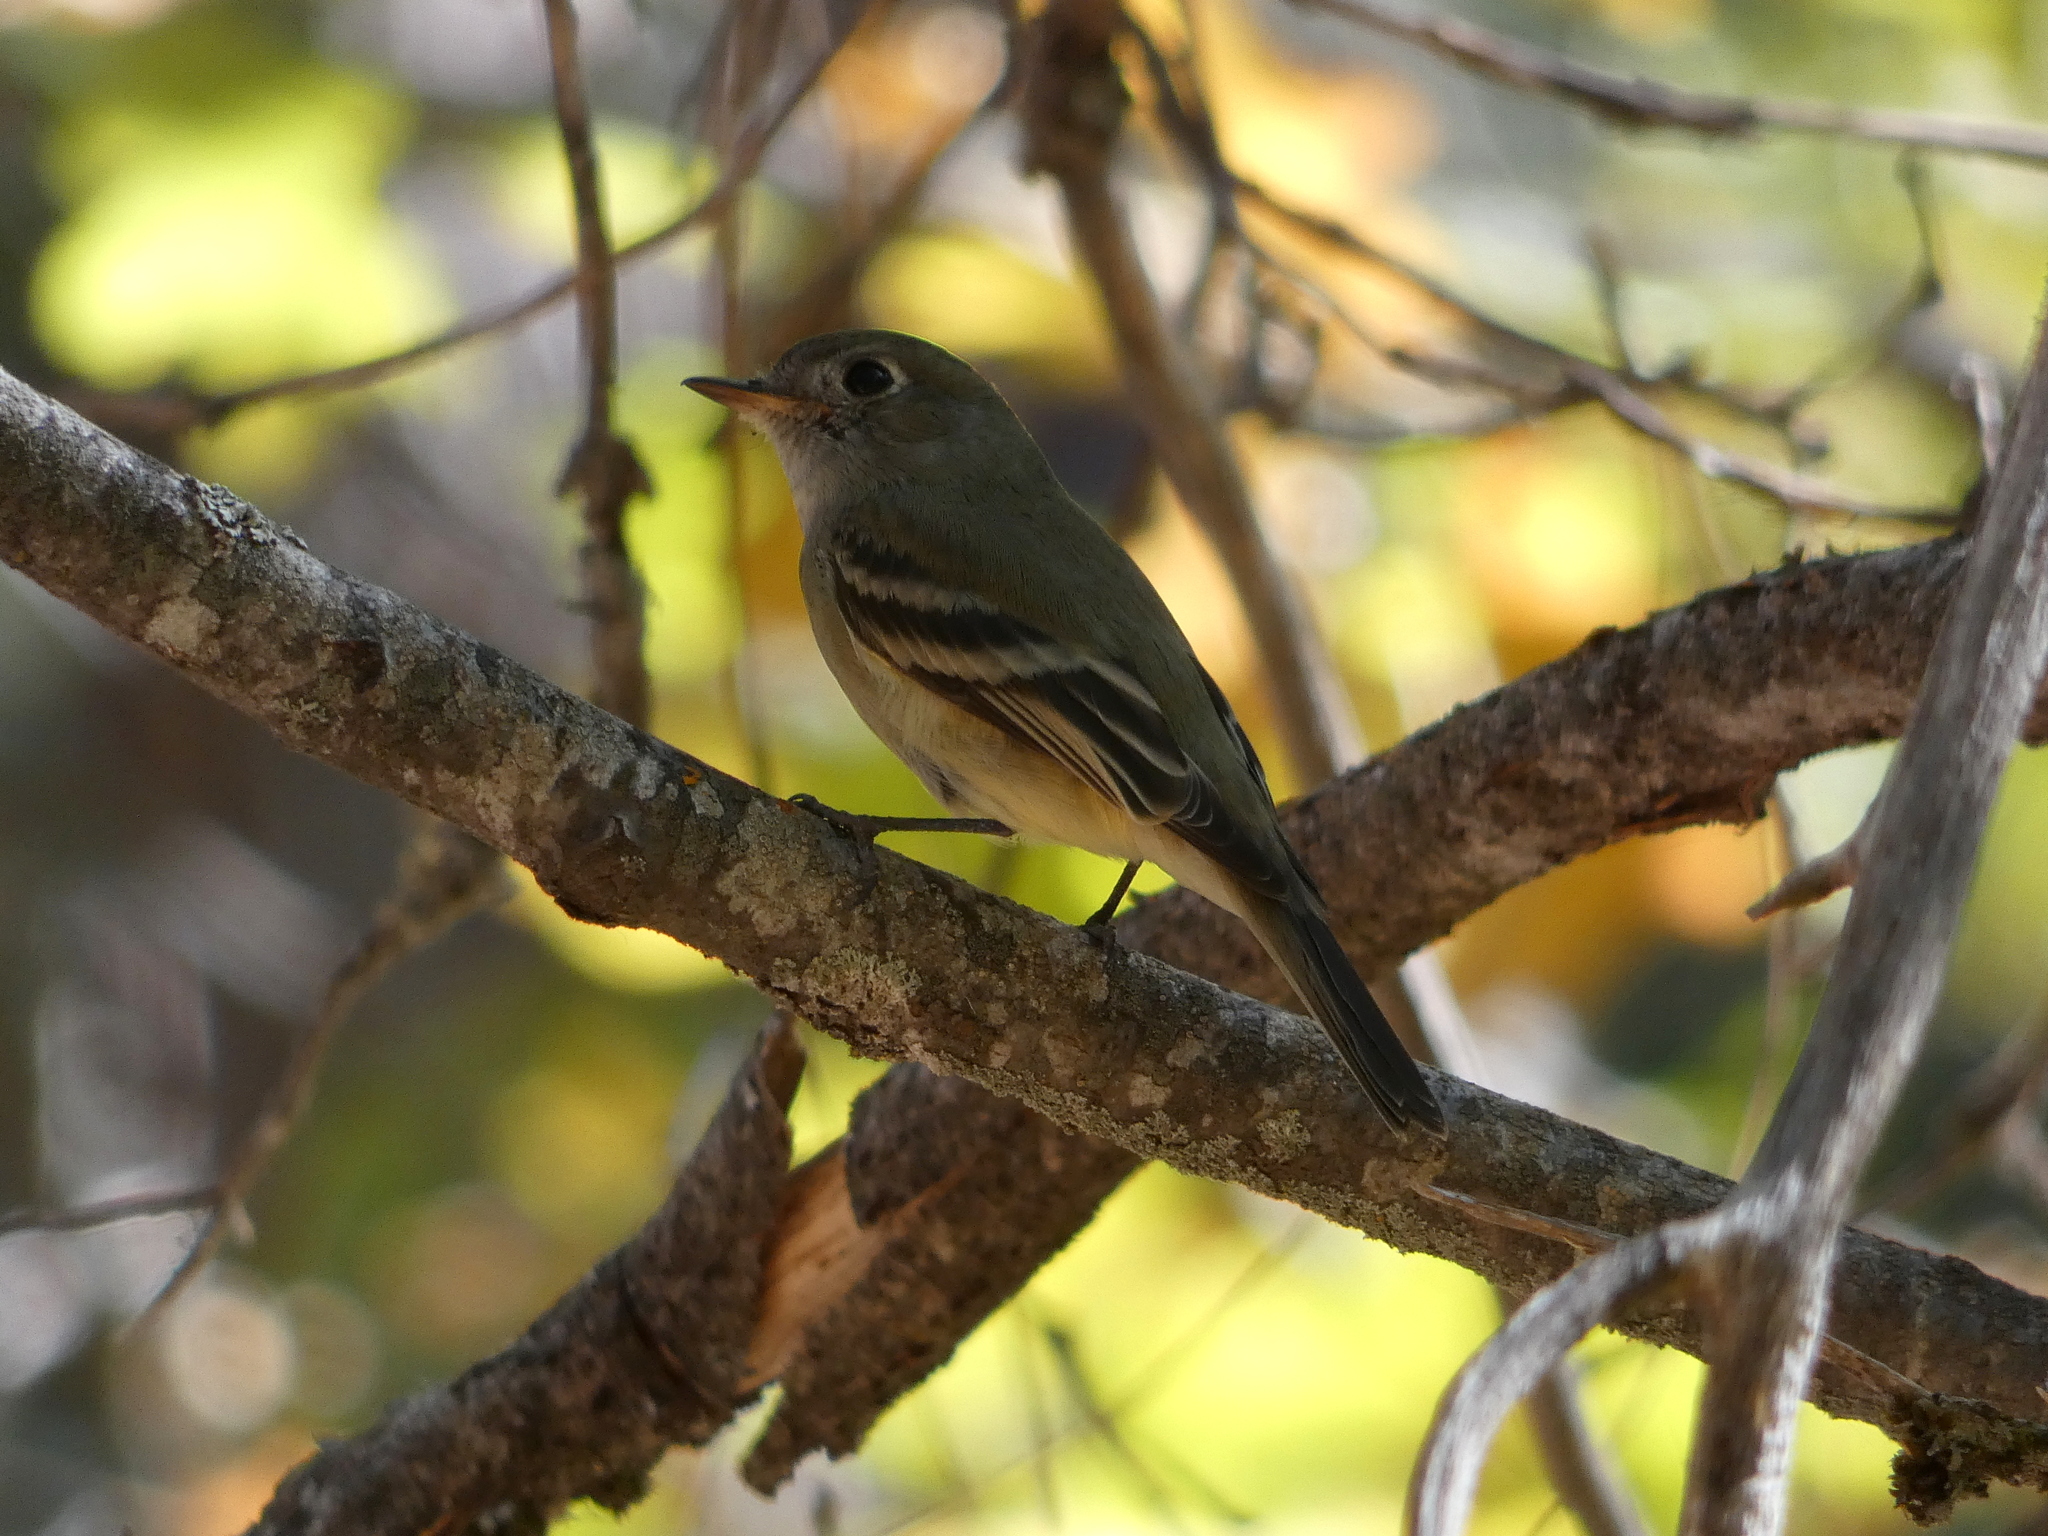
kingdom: Animalia
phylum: Chordata
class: Aves
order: Passeriformes
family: Tyrannidae
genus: Empidonax
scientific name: Empidonax hammondii
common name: Hammond's flycatcher
